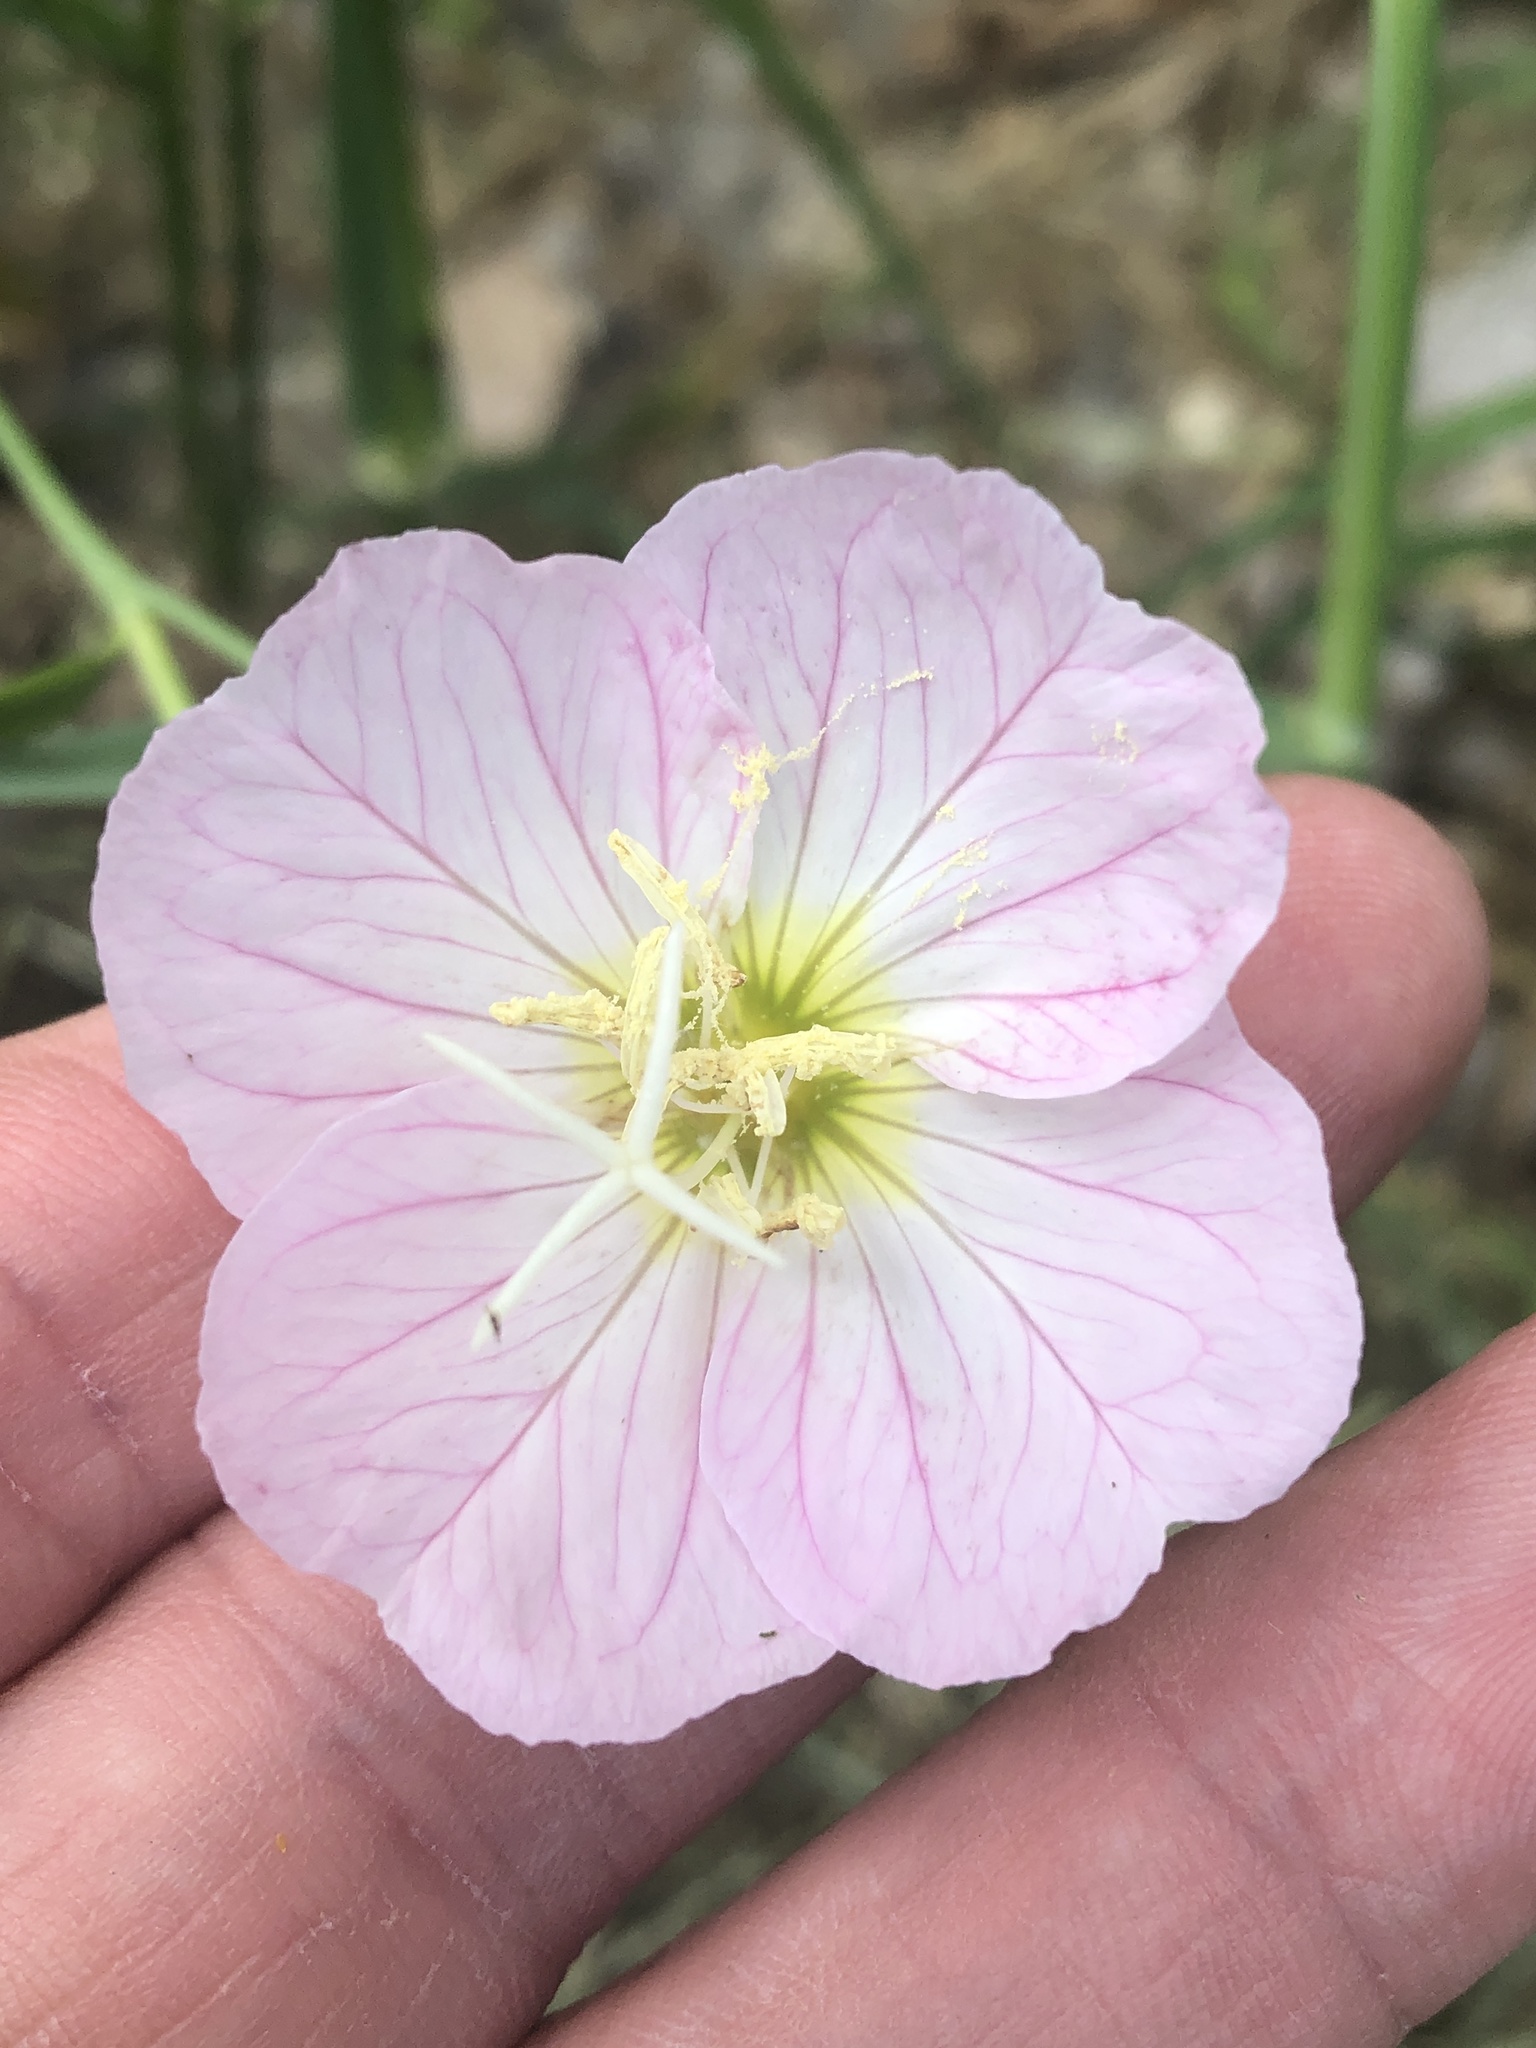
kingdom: Plantae
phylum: Tracheophyta
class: Magnoliopsida
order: Myrtales
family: Onagraceae
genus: Oenothera
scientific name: Oenothera speciosa
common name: White evening-primrose
